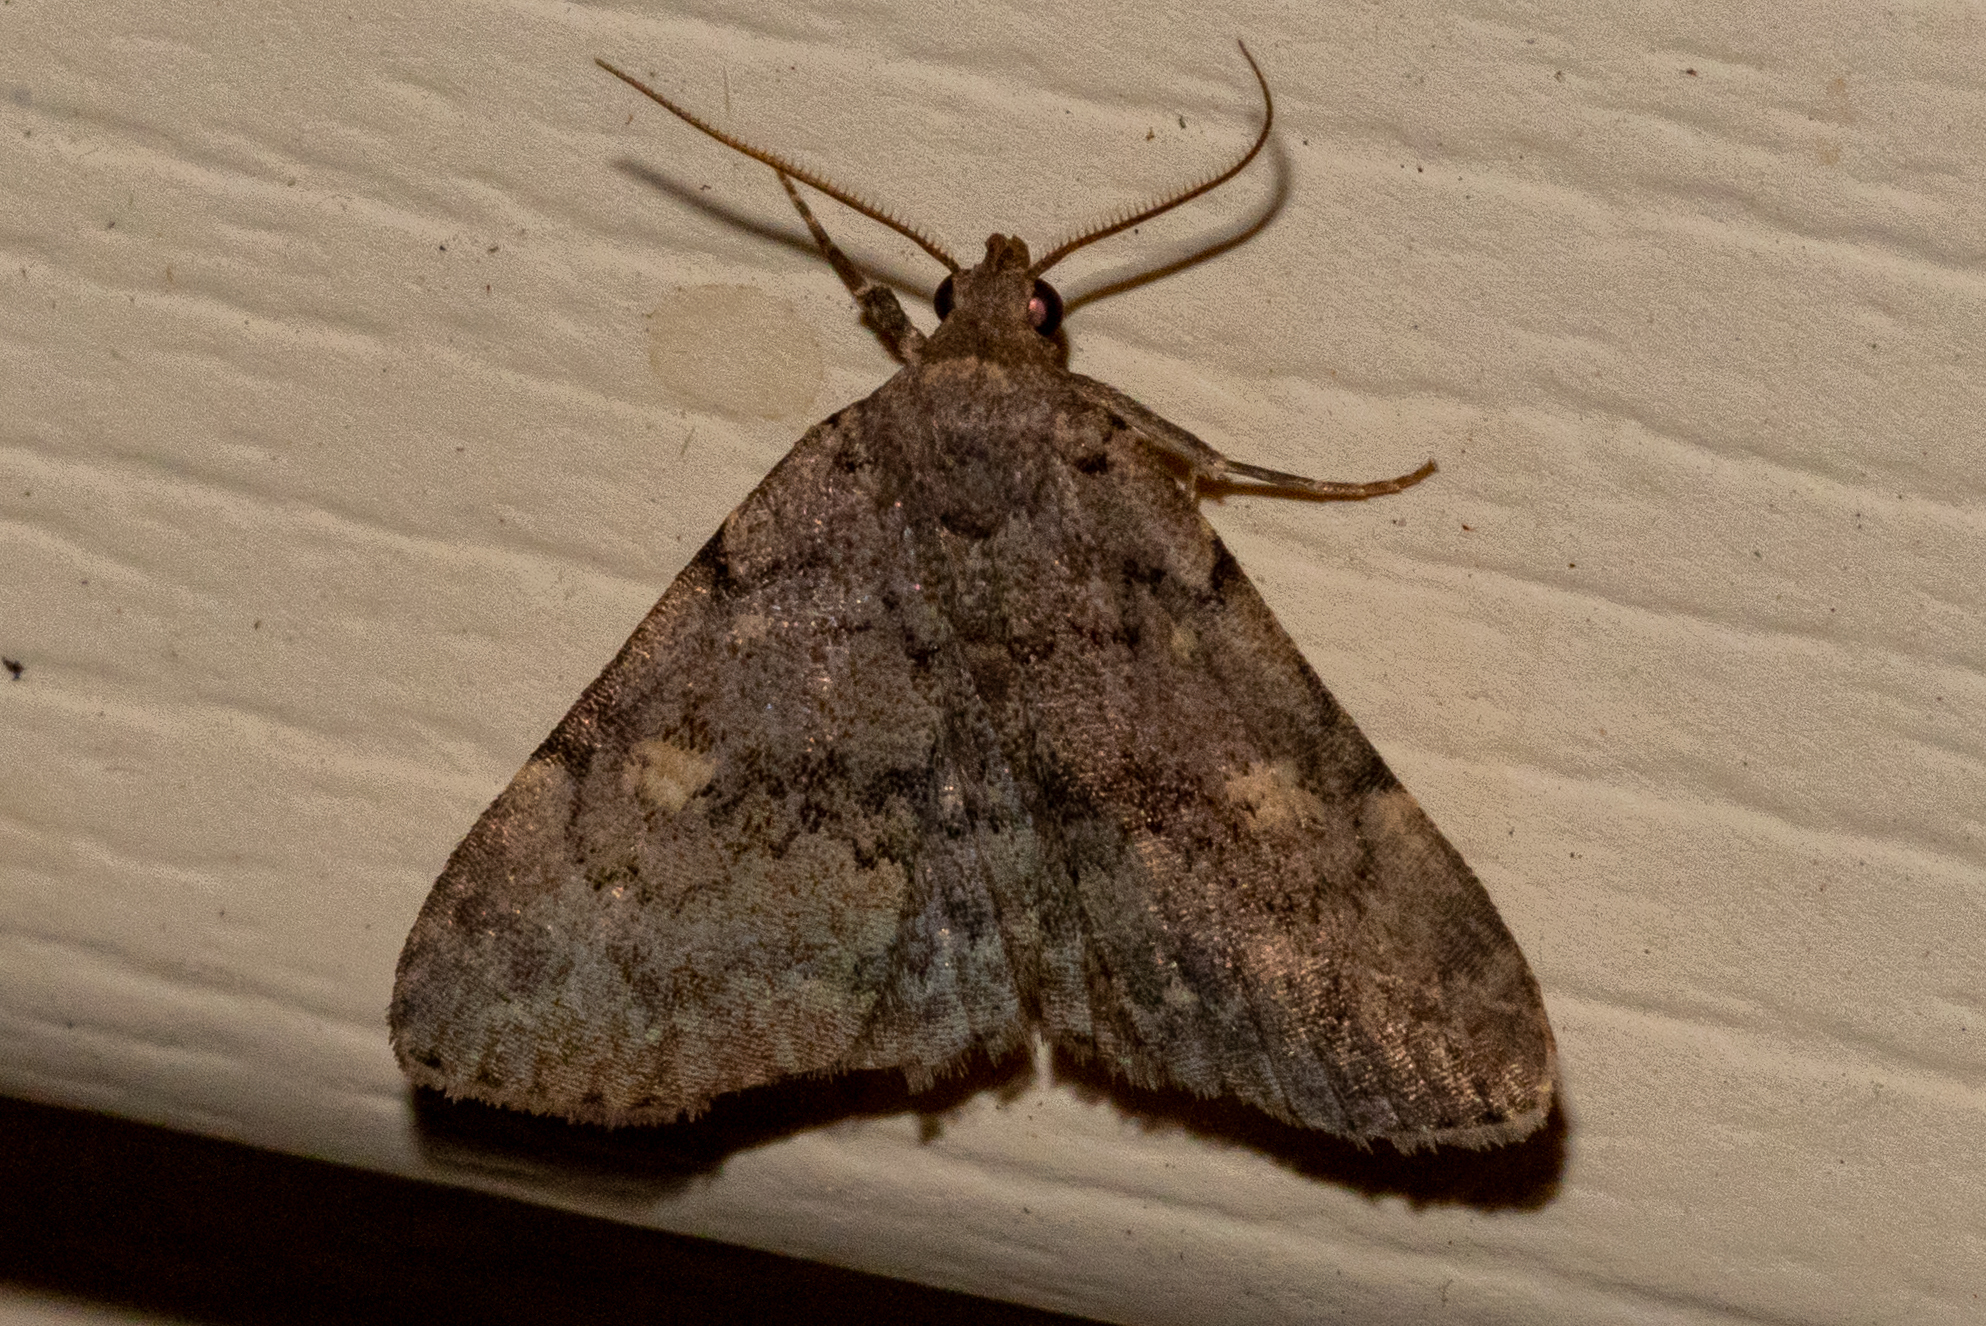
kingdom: Animalia
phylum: Arthropoda
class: Insecta
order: Lepidoptera
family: Erebidae
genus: Idia
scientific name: Idia aemula
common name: Common idia moth
